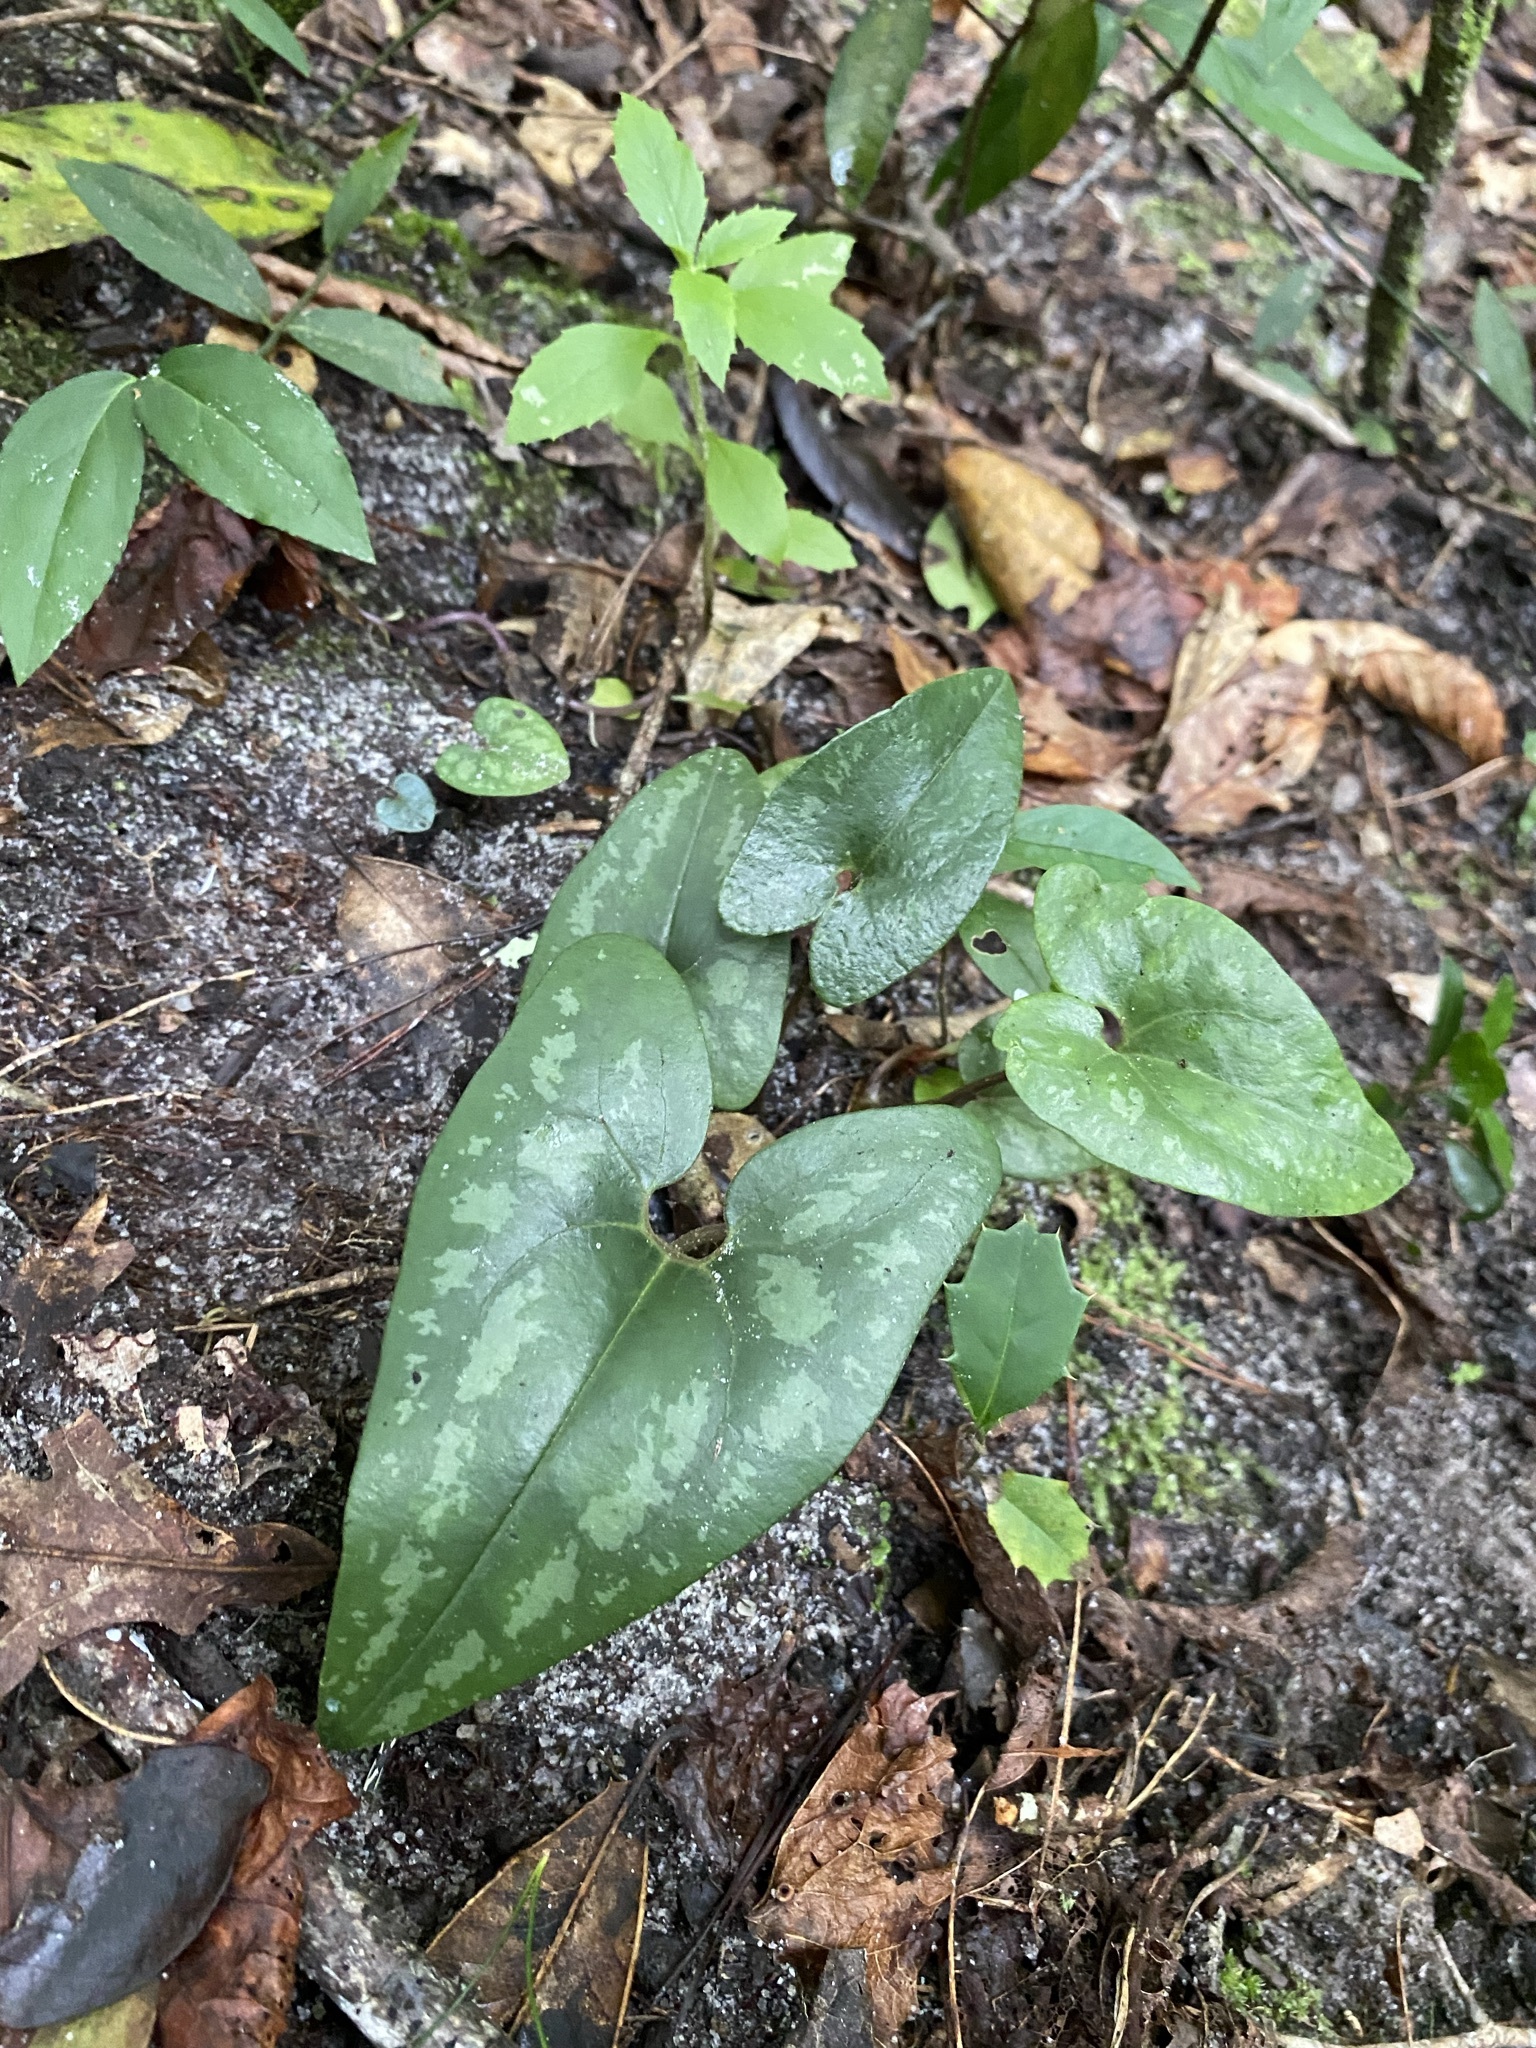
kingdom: Plantae
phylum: Tracheophyta
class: Magnoliopsida
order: Piperales
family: Aristolochiaceae
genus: Hexastylis
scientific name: Hexastylis arifolia
